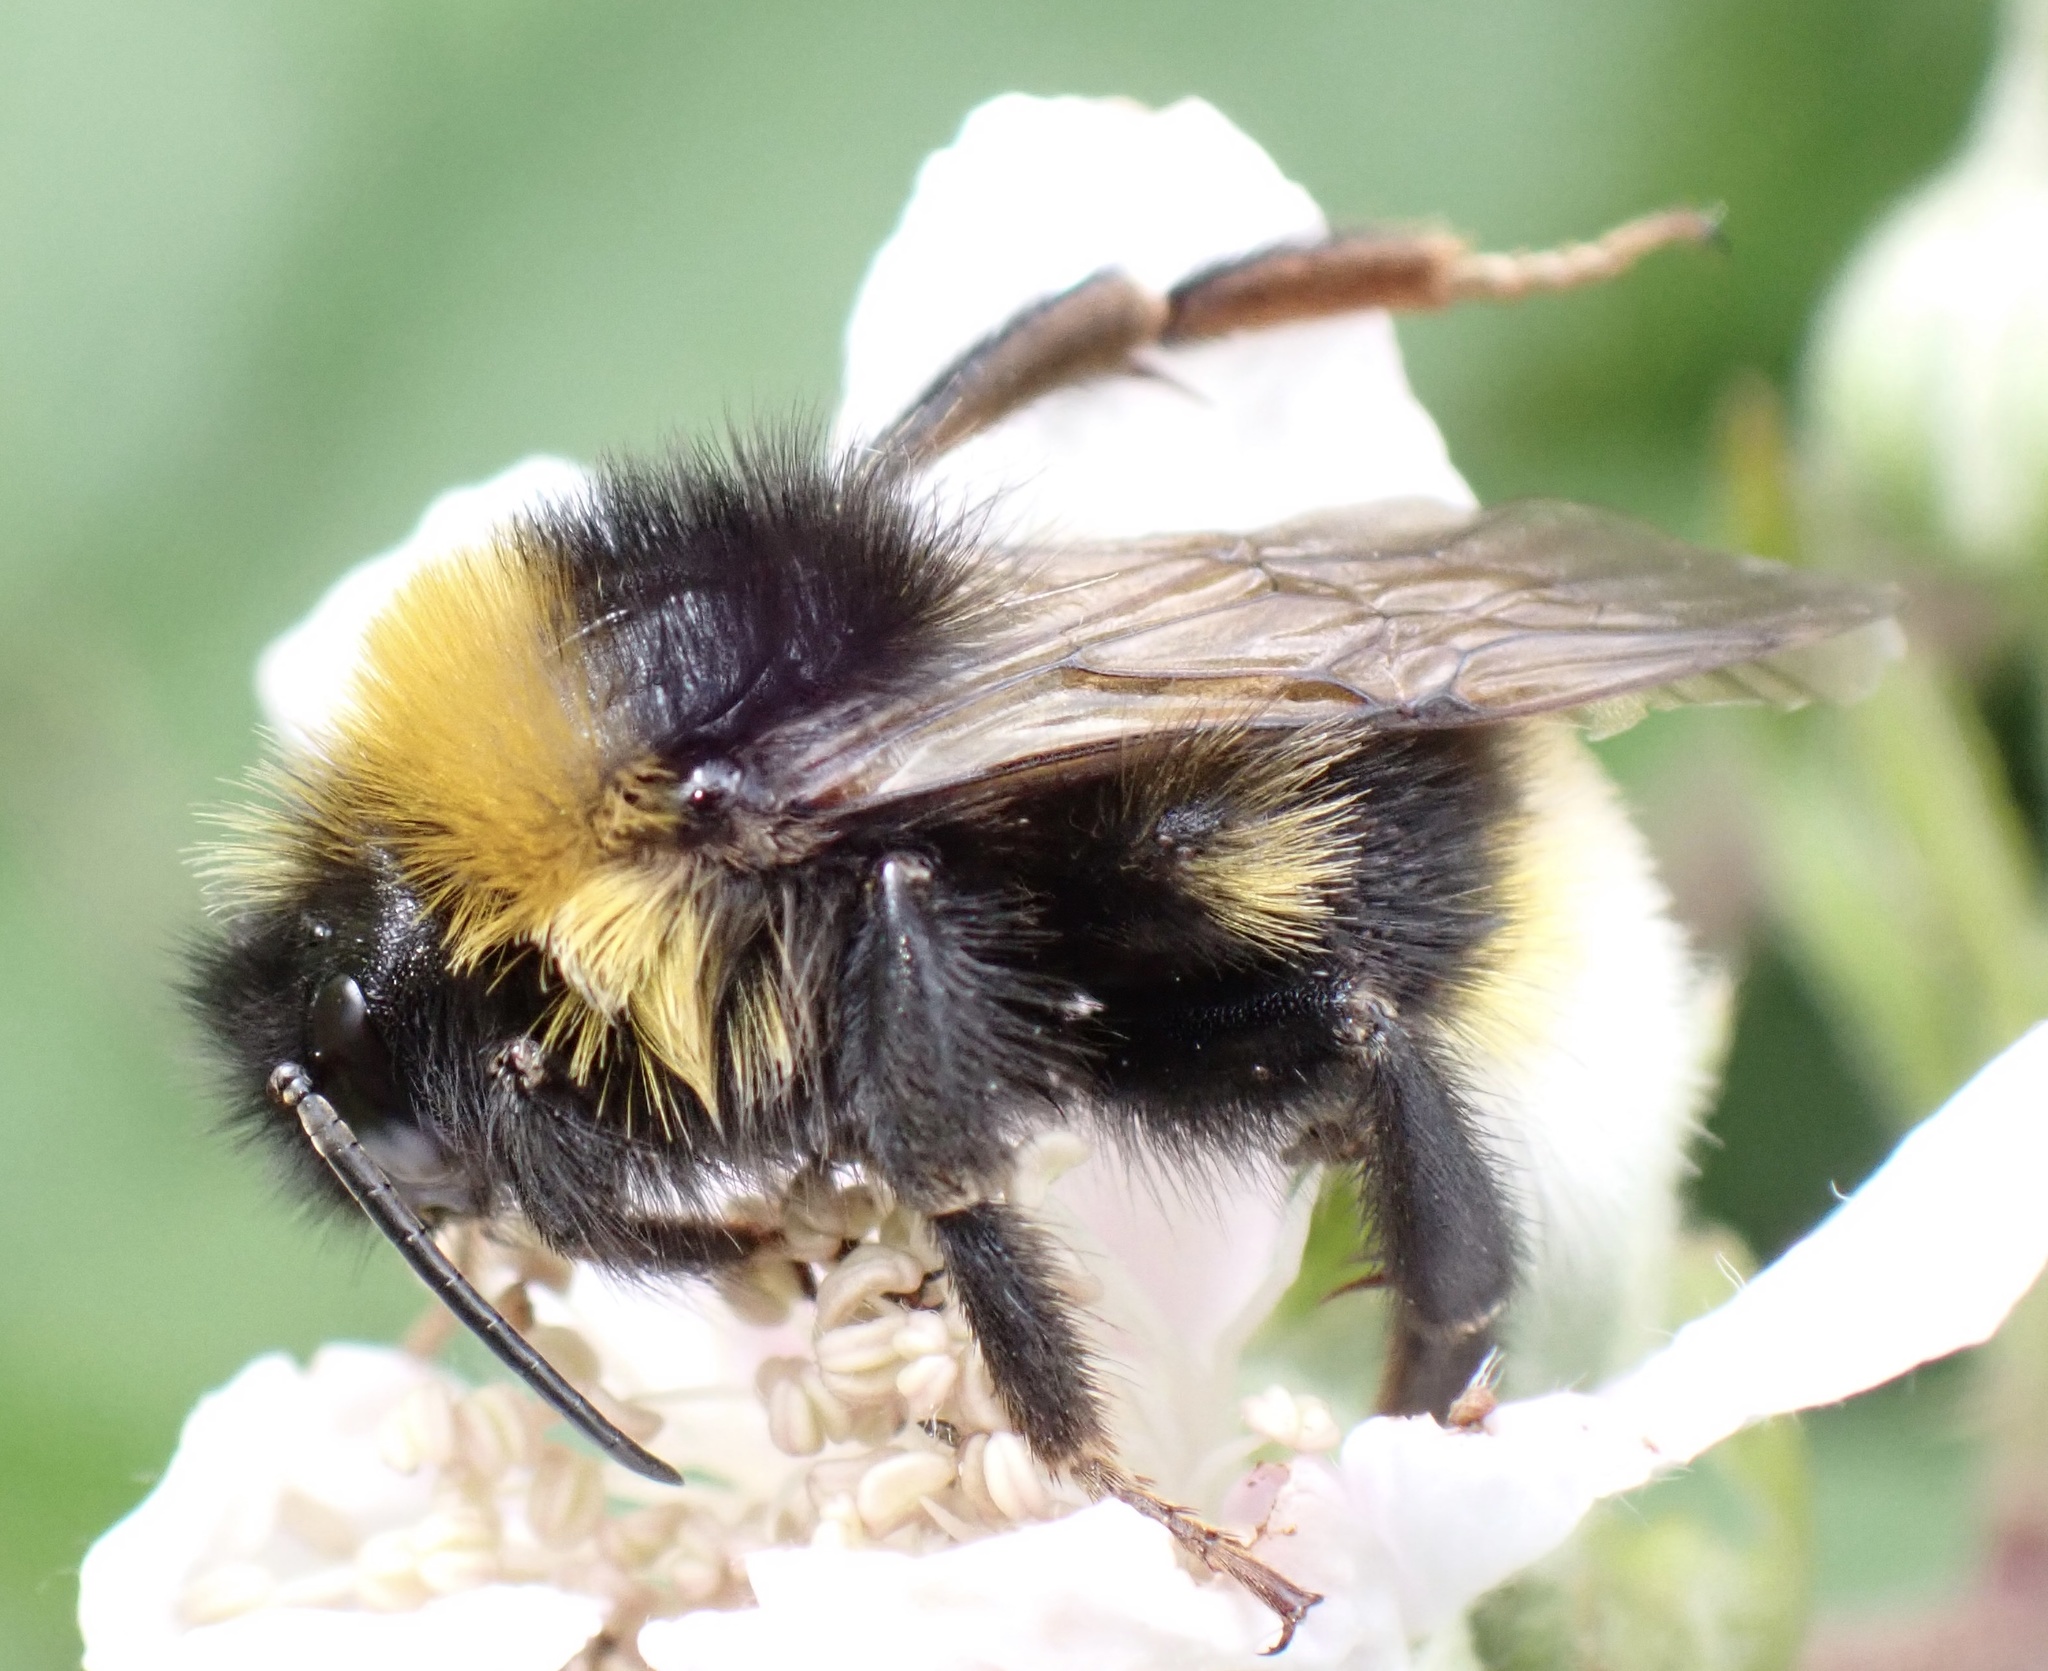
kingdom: Animalia
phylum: Arthropoda
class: Insecta
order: Hymenoptera
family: Apidae
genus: Bombus
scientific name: Bombus vestalis
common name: Vestal cuckoo bee
